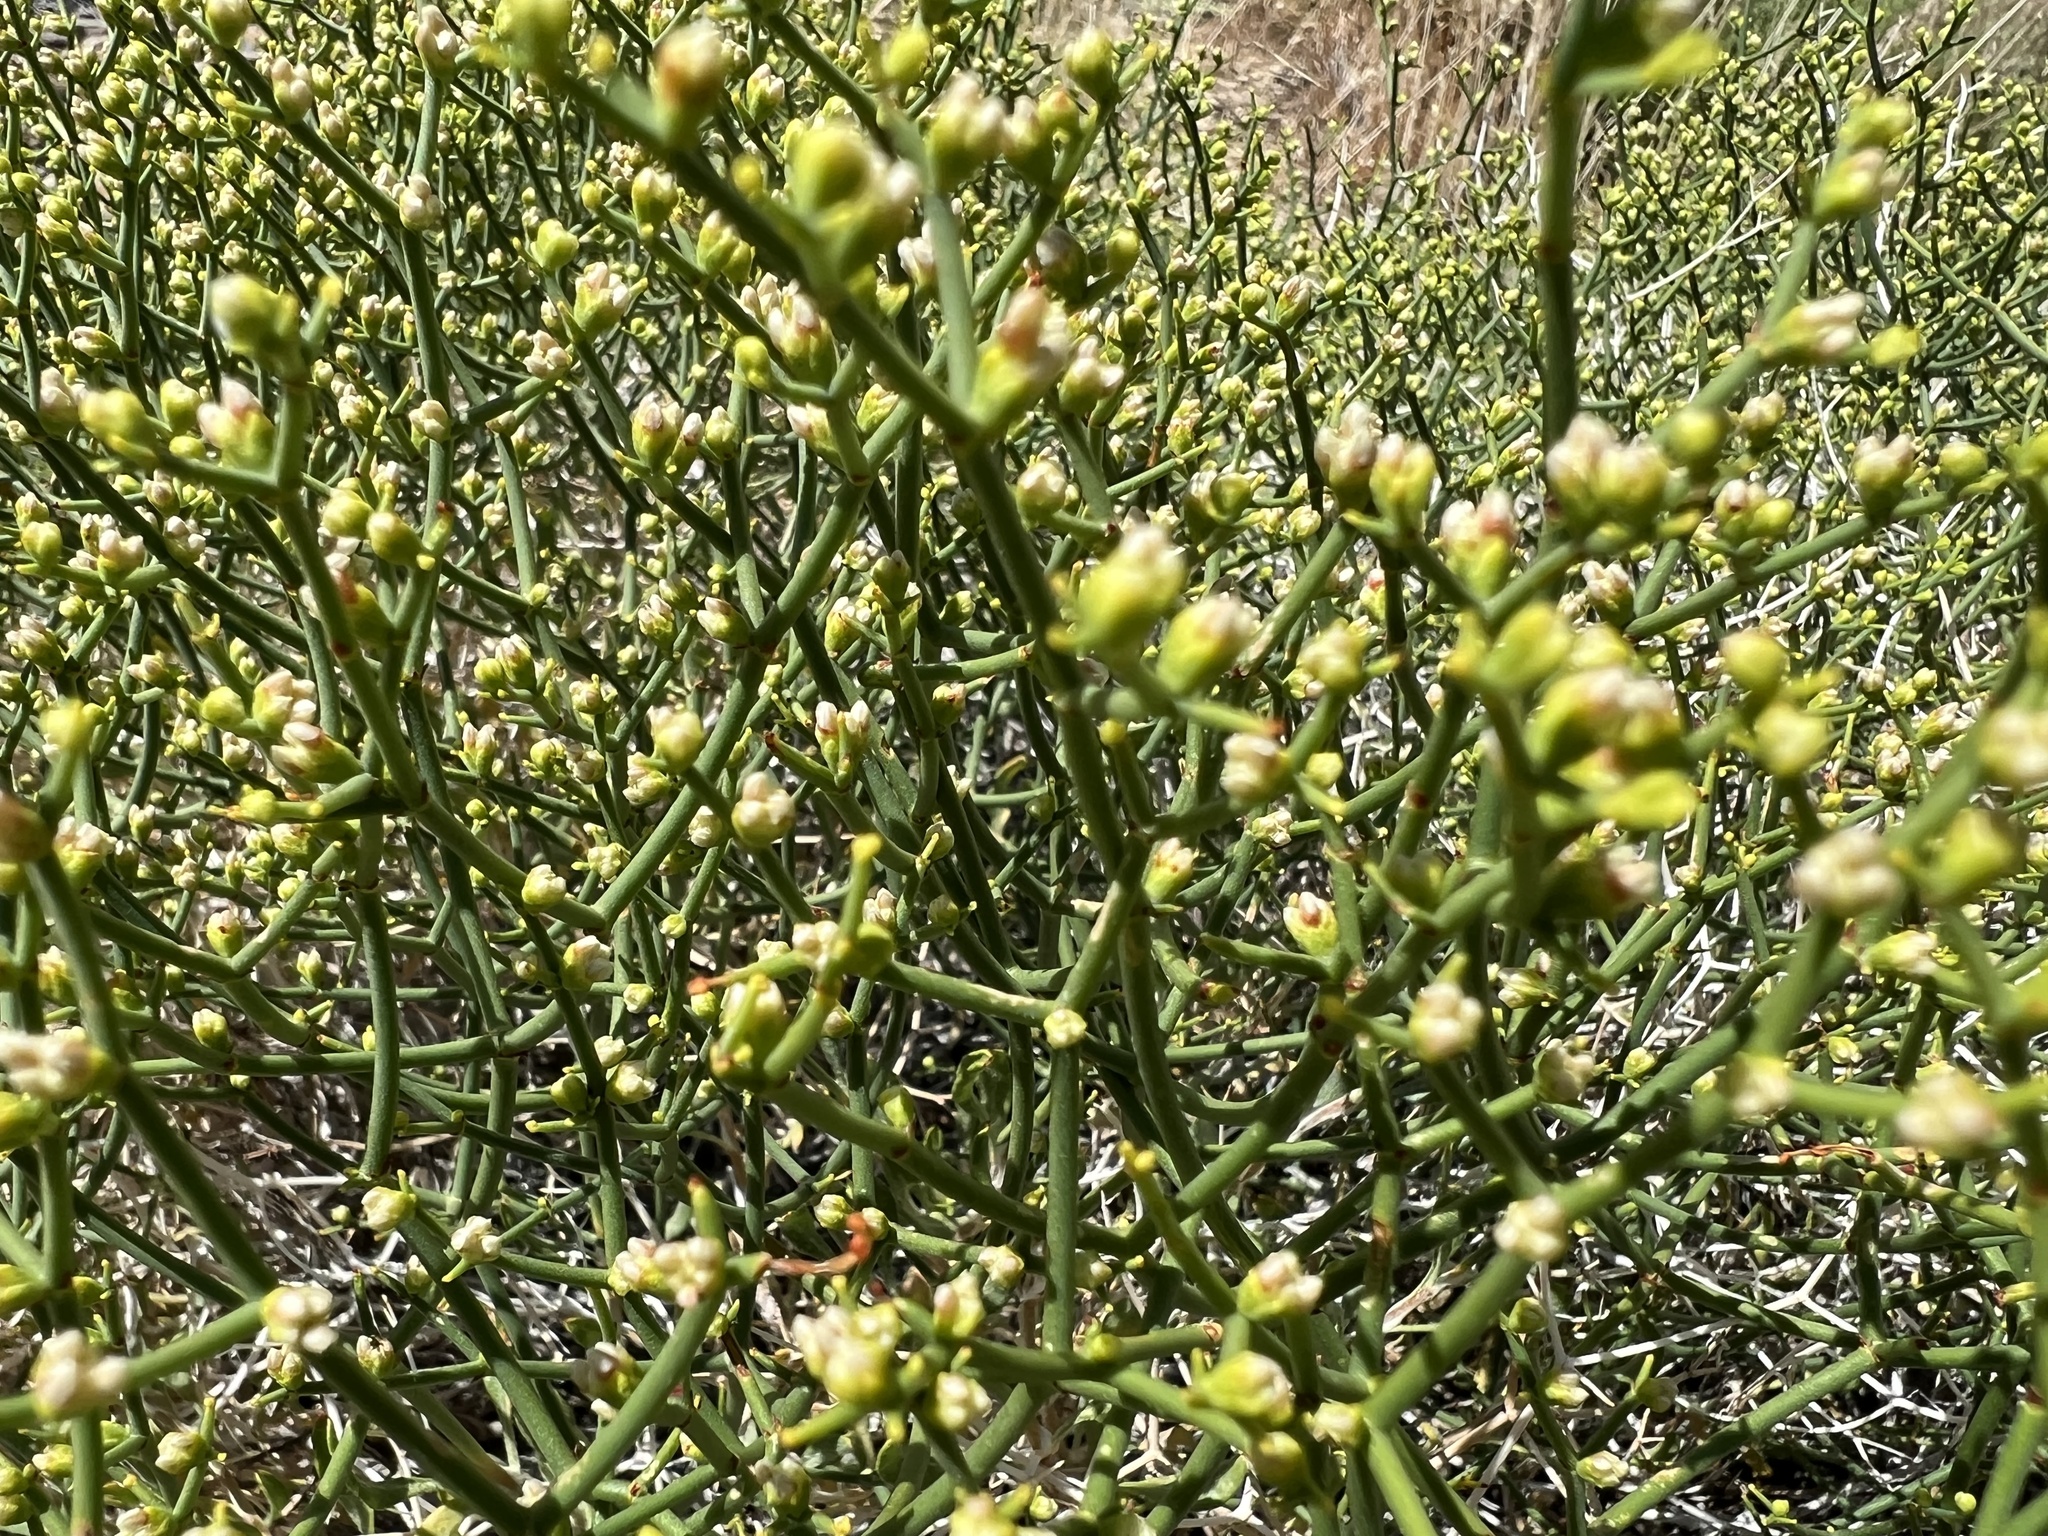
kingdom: Plantae
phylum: Tracheophyta
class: Magnoliopsida
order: Caryophyllales
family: Polygonaceae
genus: Eriogonum
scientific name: Eriogonum heermannii
